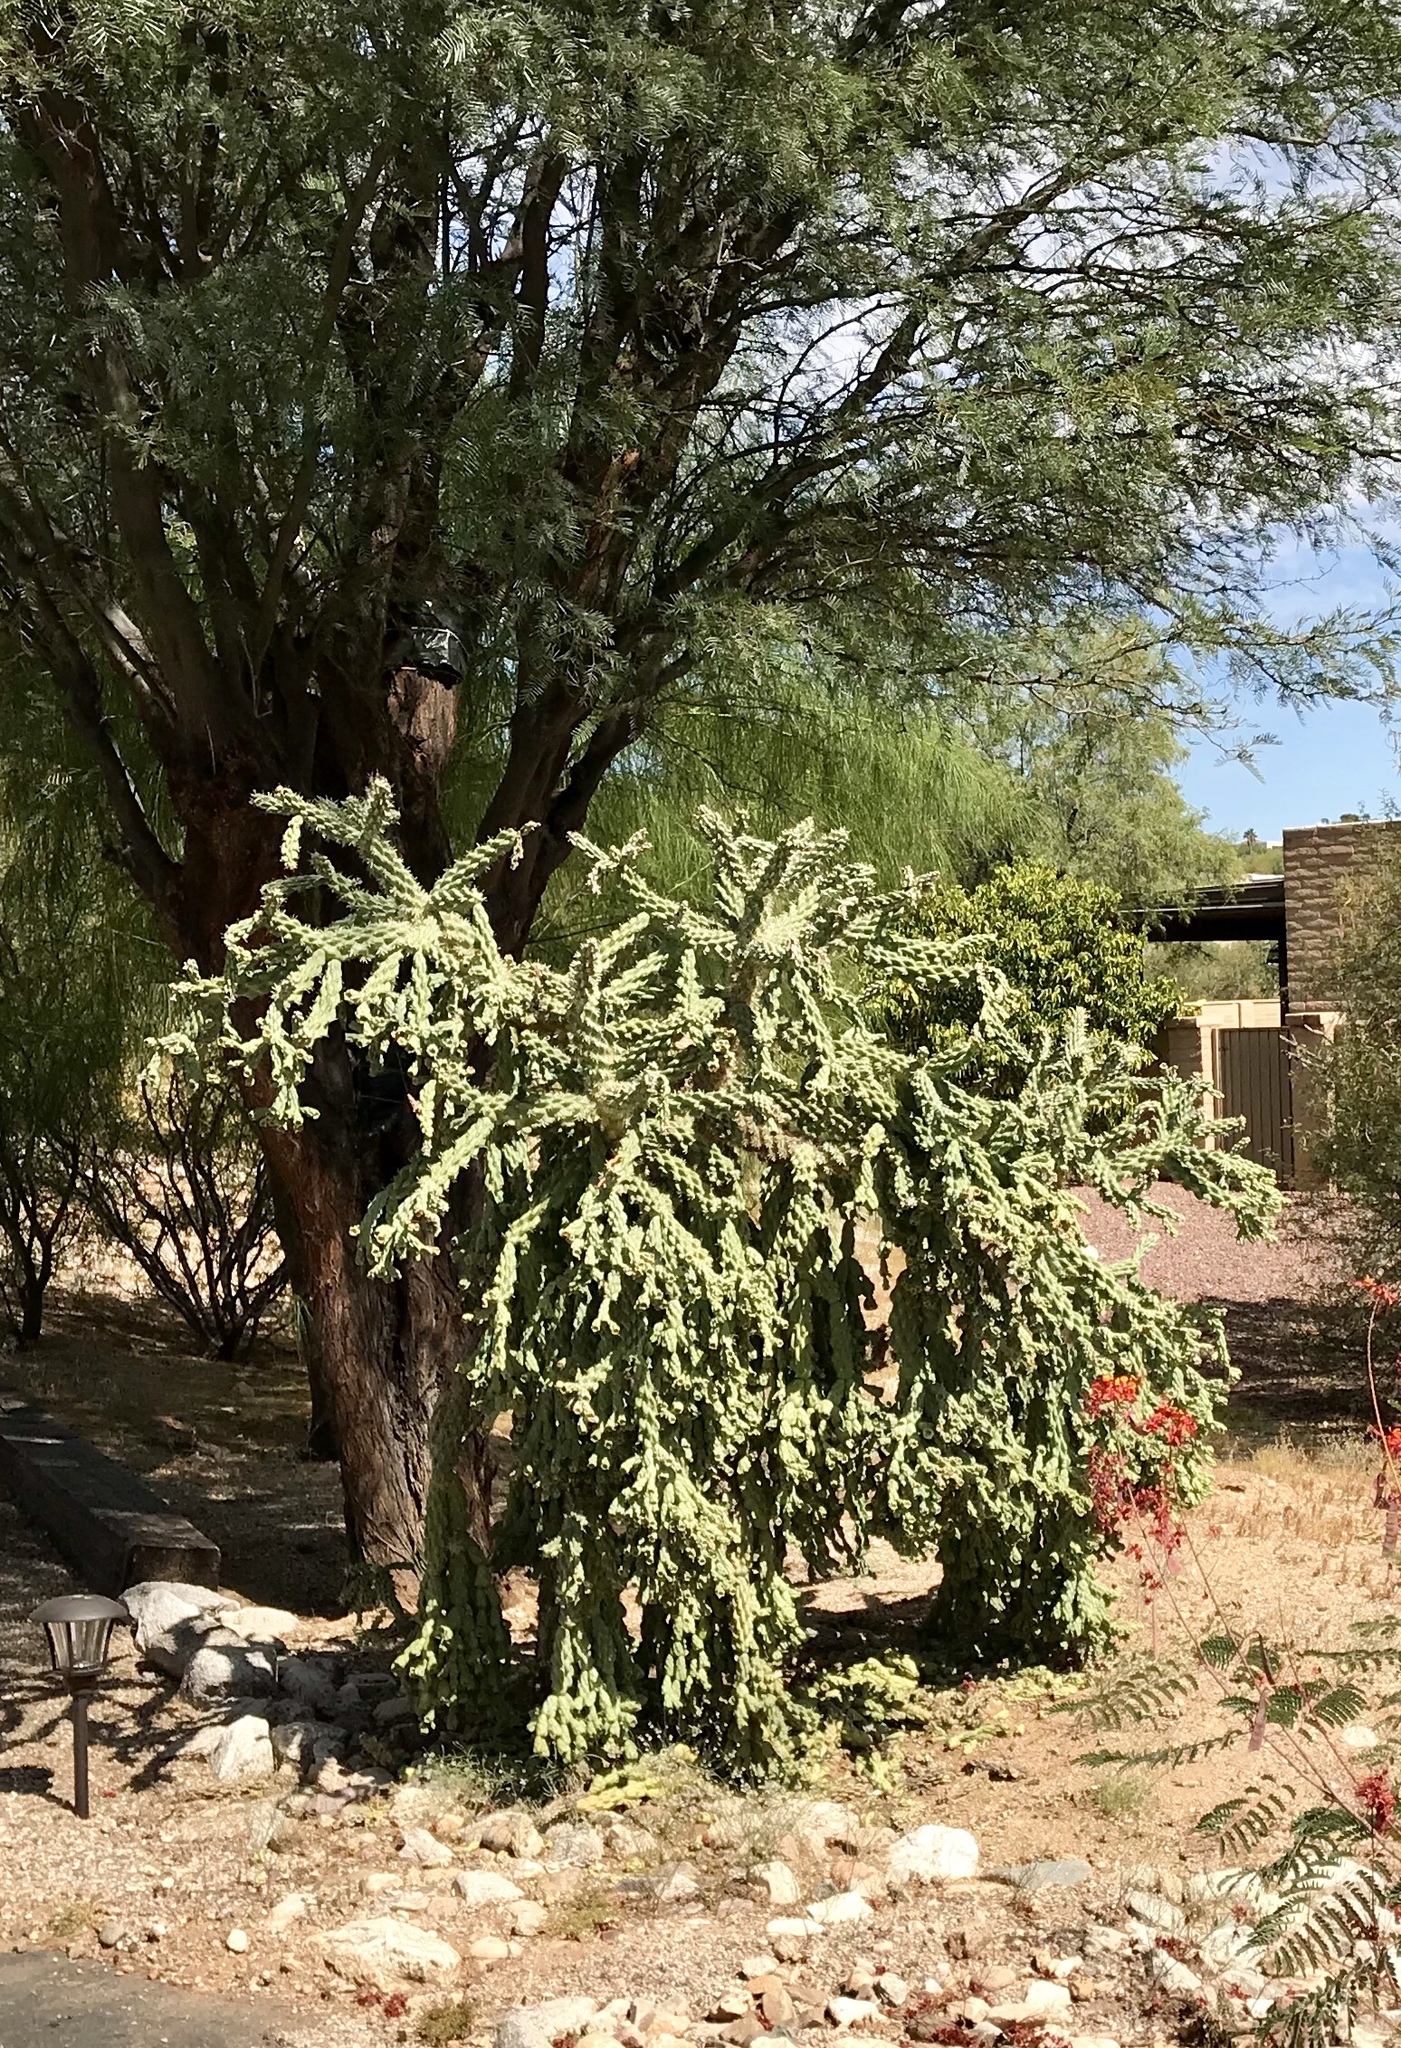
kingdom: Plantae
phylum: Tracheophyta
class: Magnoliopsida
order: Caryophyllales
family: Cactaceae
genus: Cylindropuntia
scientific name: Cylindropuntia fulgida
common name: Jumping cholla
